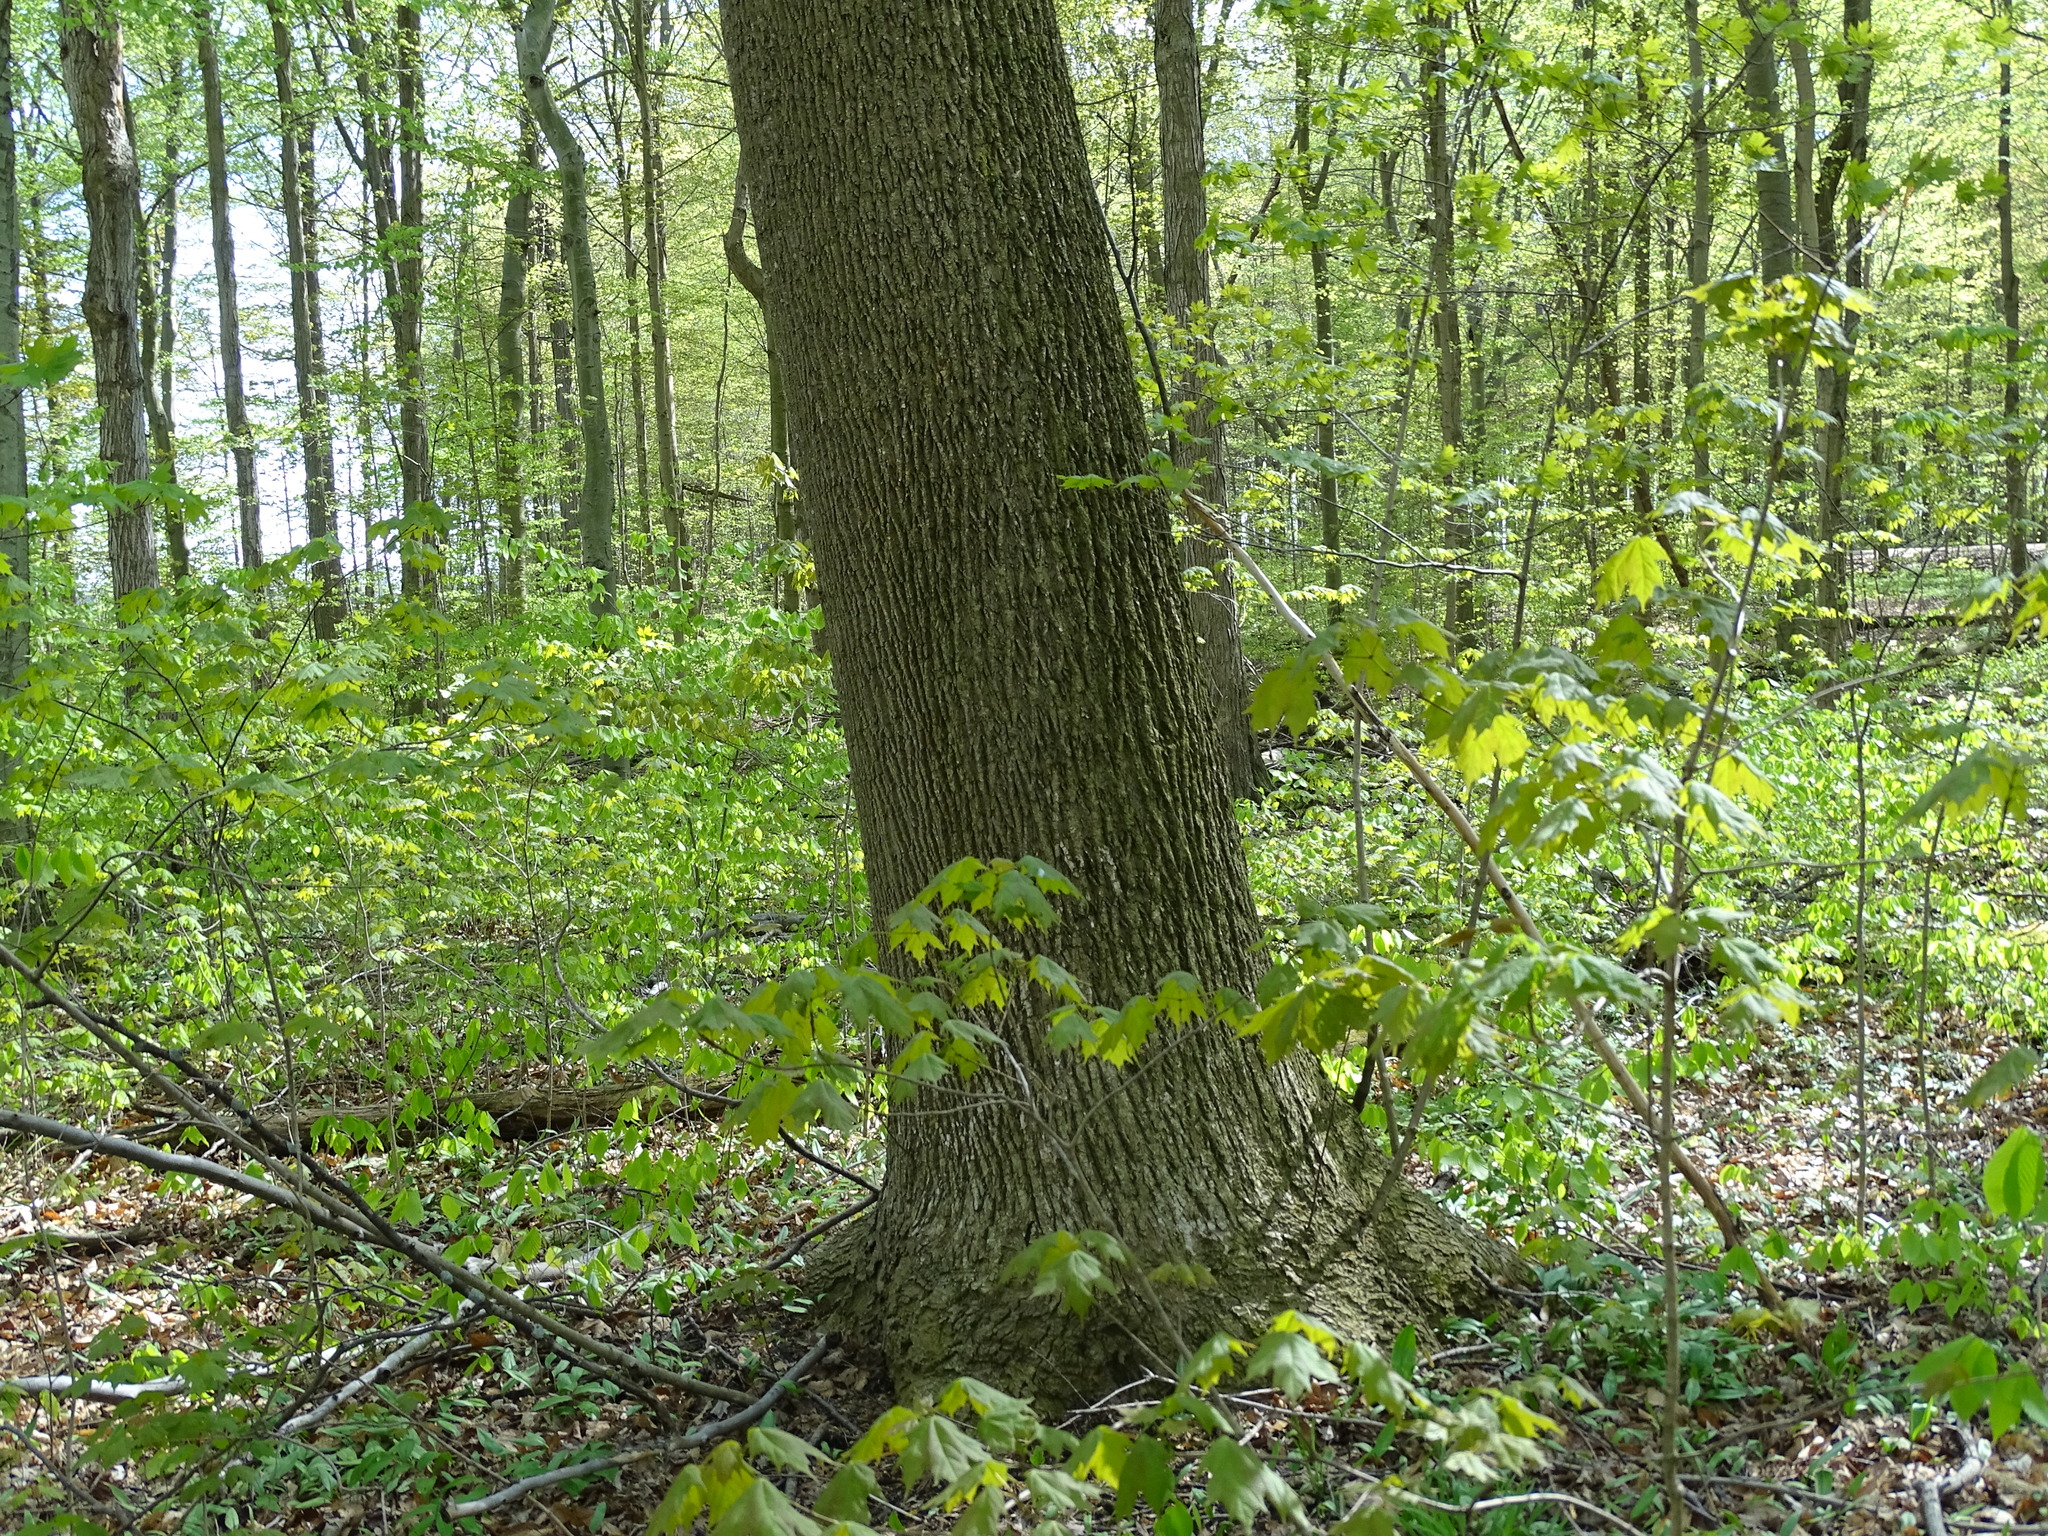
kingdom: Plantae
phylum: Tracheophyta
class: Magnoliopsida
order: Magnoliales
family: Magnoliaceae
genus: Liriodendron
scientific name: Liriodendron tulipifera
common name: Tulip tree
